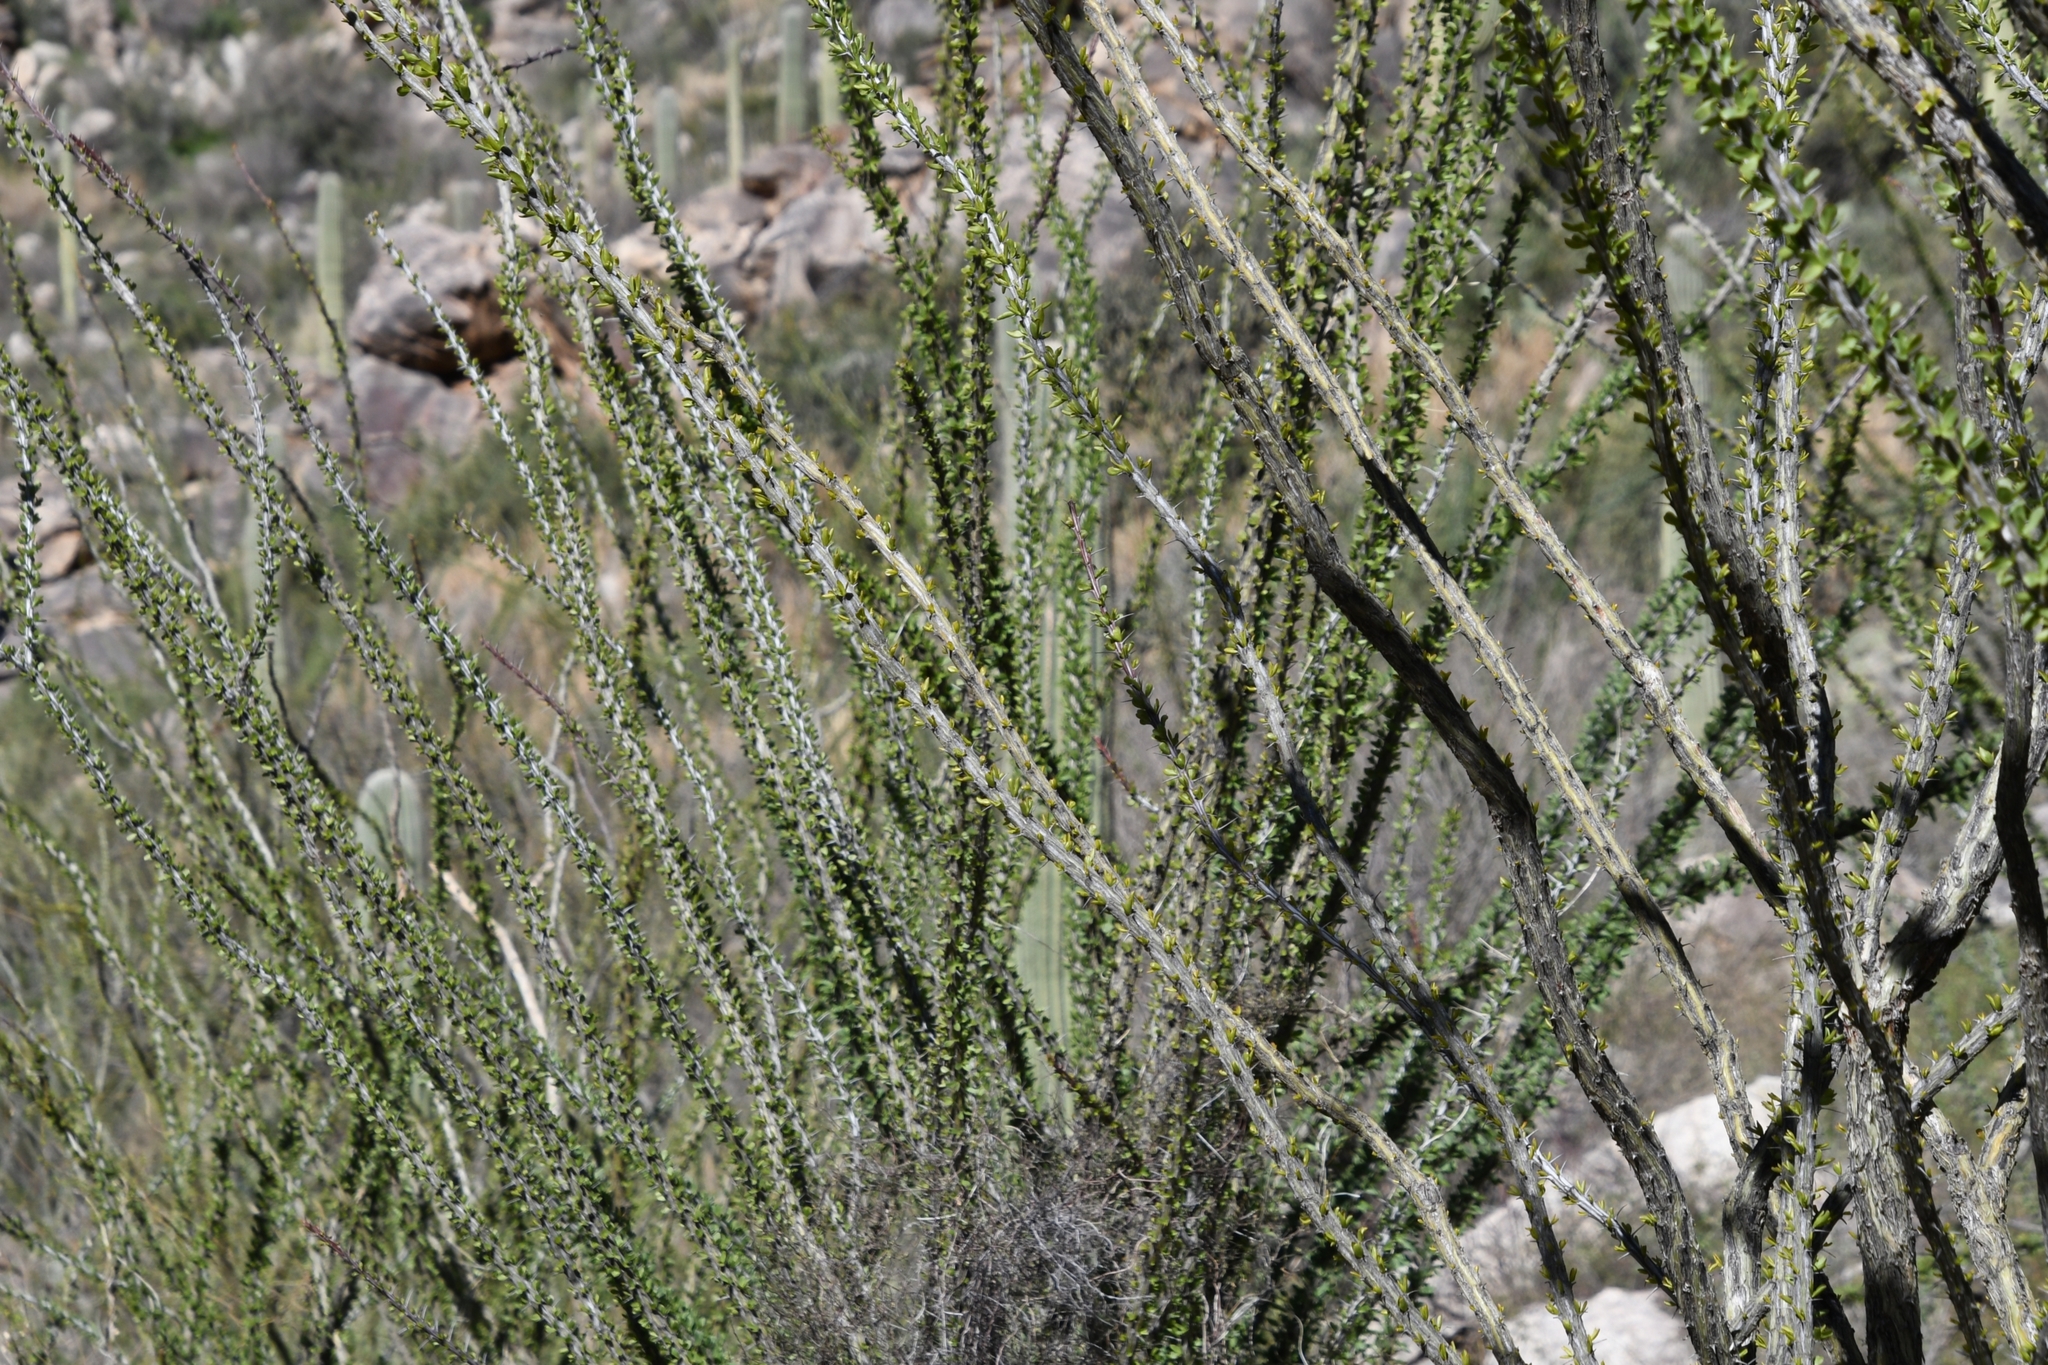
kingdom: Plantae
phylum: Tracheophyta
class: Magnoliopsida
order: Ericales
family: Fouquieriaceae
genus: Fouquieria
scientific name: Fouquieria splendens
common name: Vine-cactus
